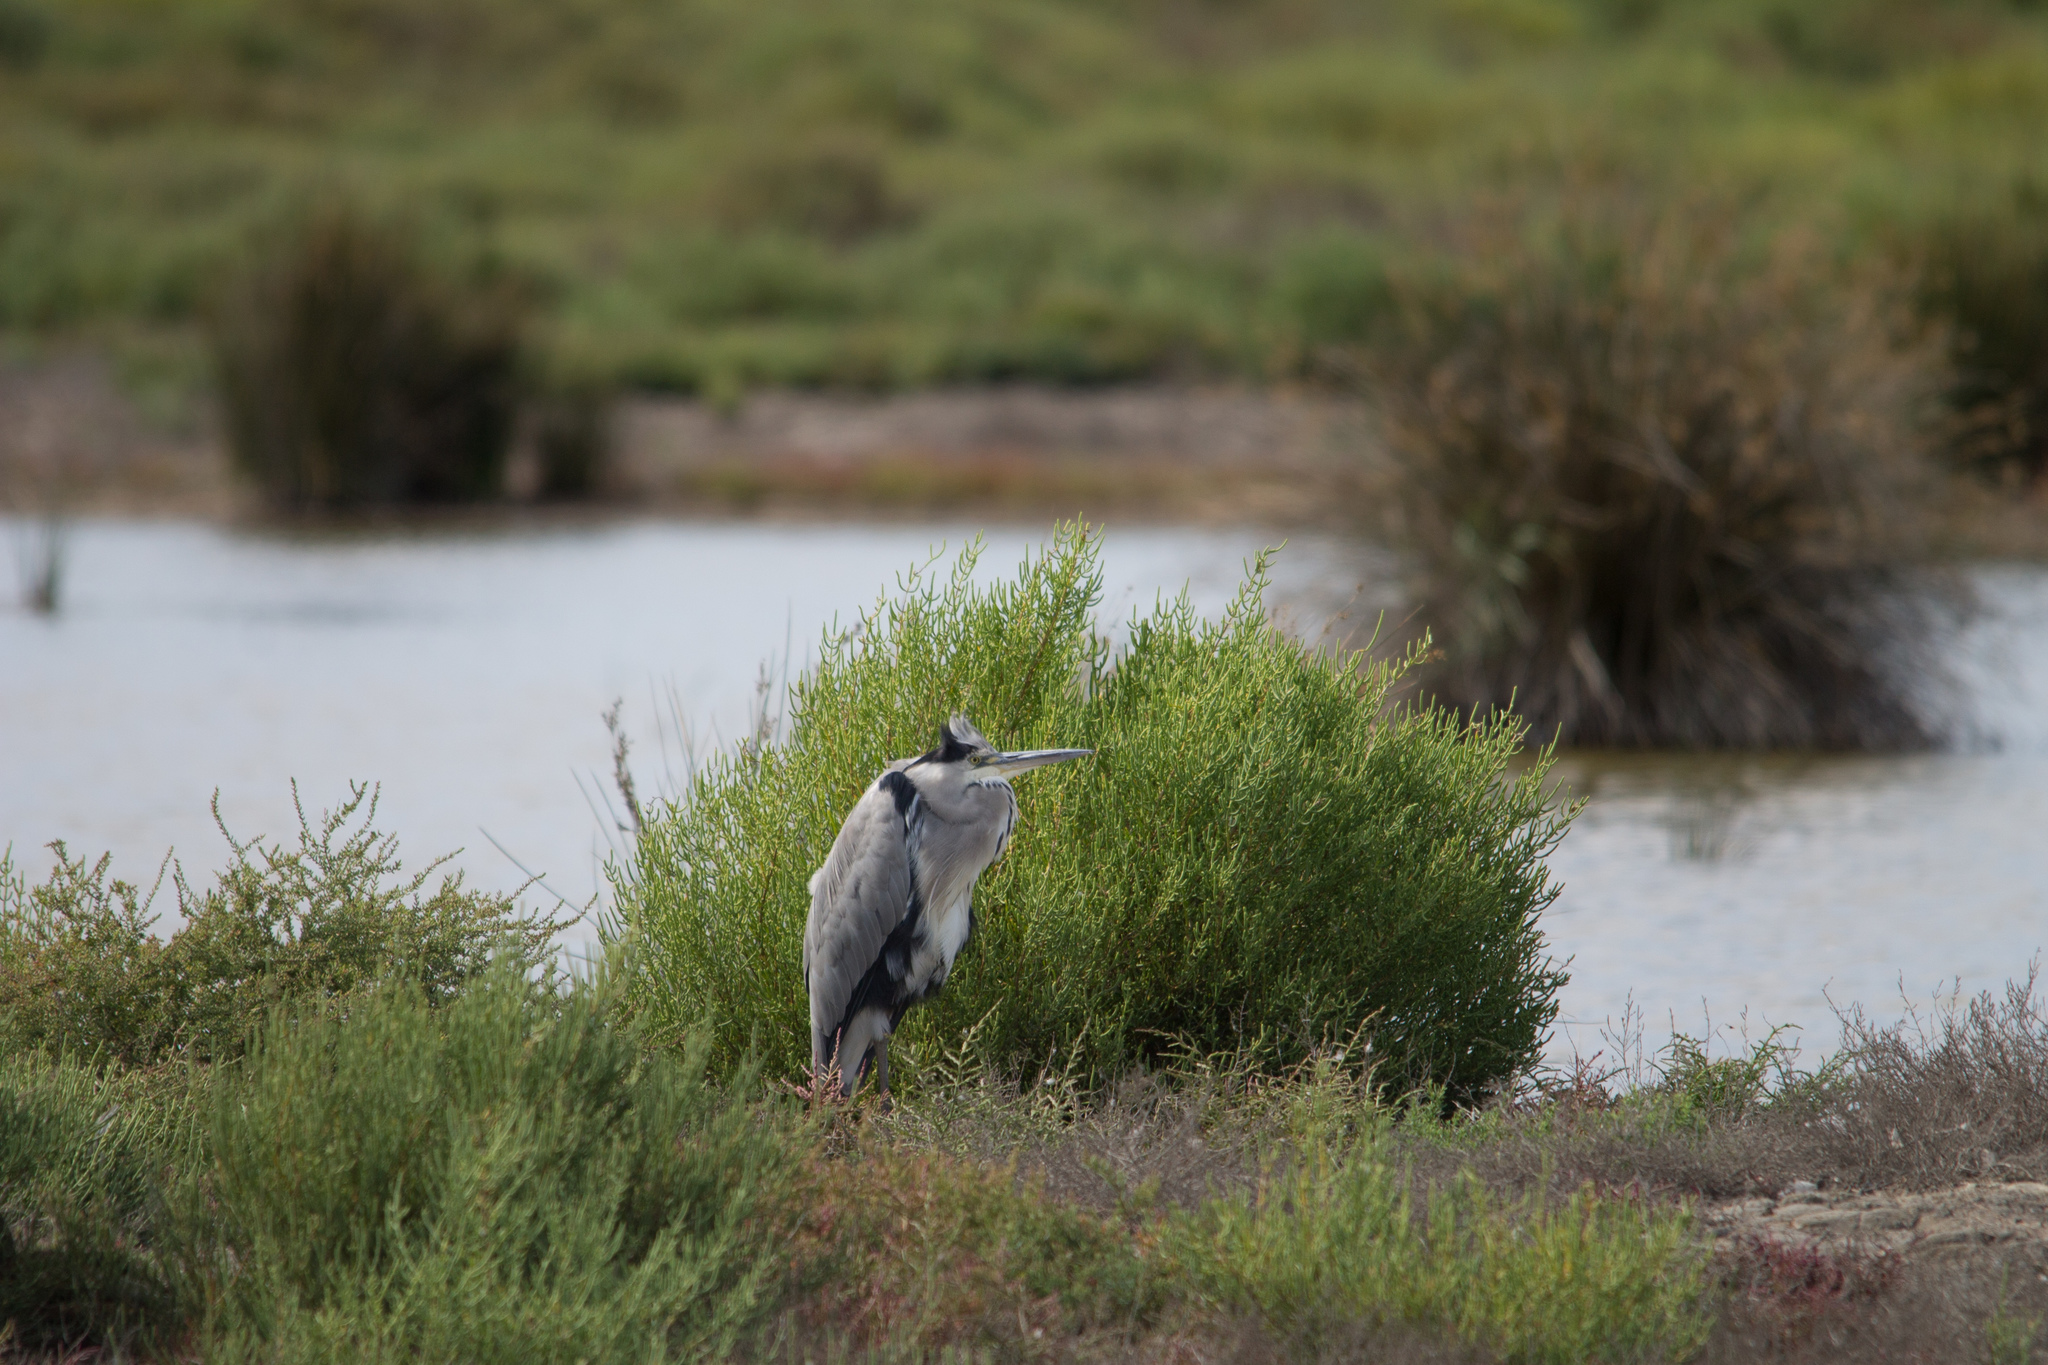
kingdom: Animalia
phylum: Chordata
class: Aves
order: Pelecaniformes
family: Ardeidae
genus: Ardea
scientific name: Ardea cinerea
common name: Grey heron
